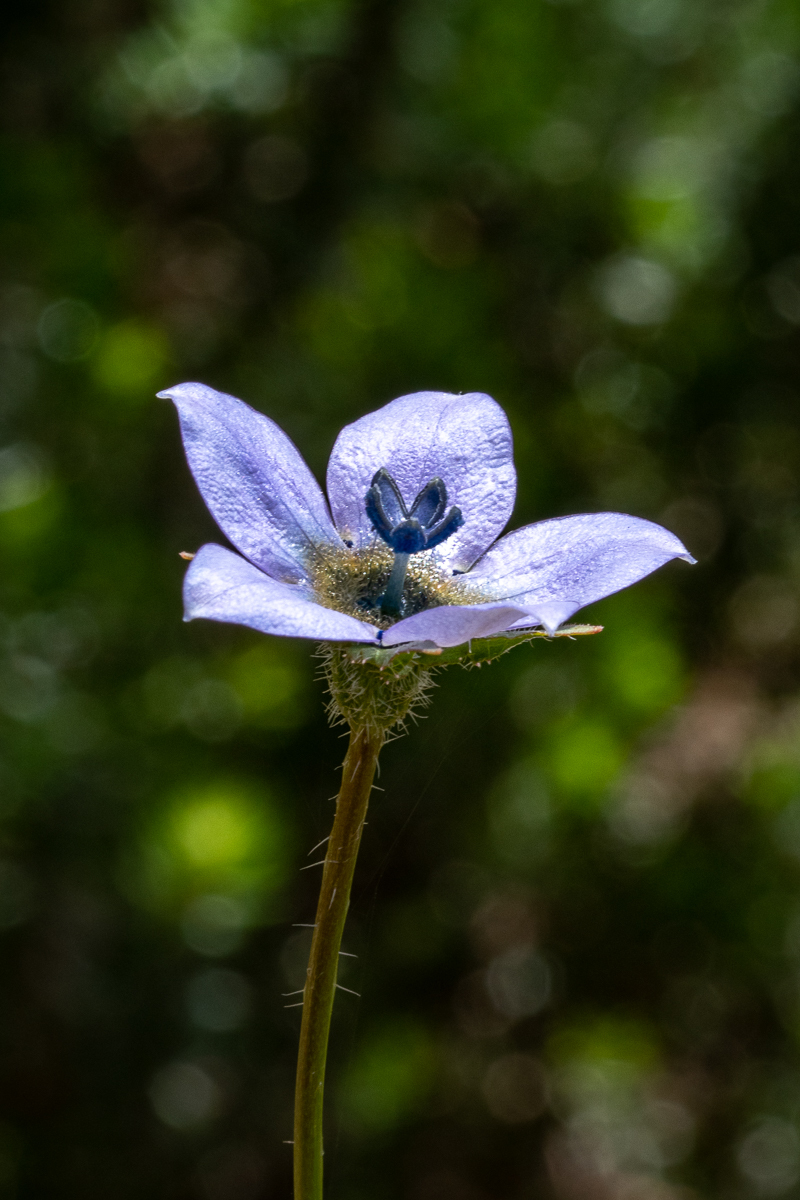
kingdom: Plantae
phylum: Tracheophyta
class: Magnoliopsida
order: Asterales
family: Campanulaceae
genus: Wahlenbergia
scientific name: Wahlenbergia capensis
